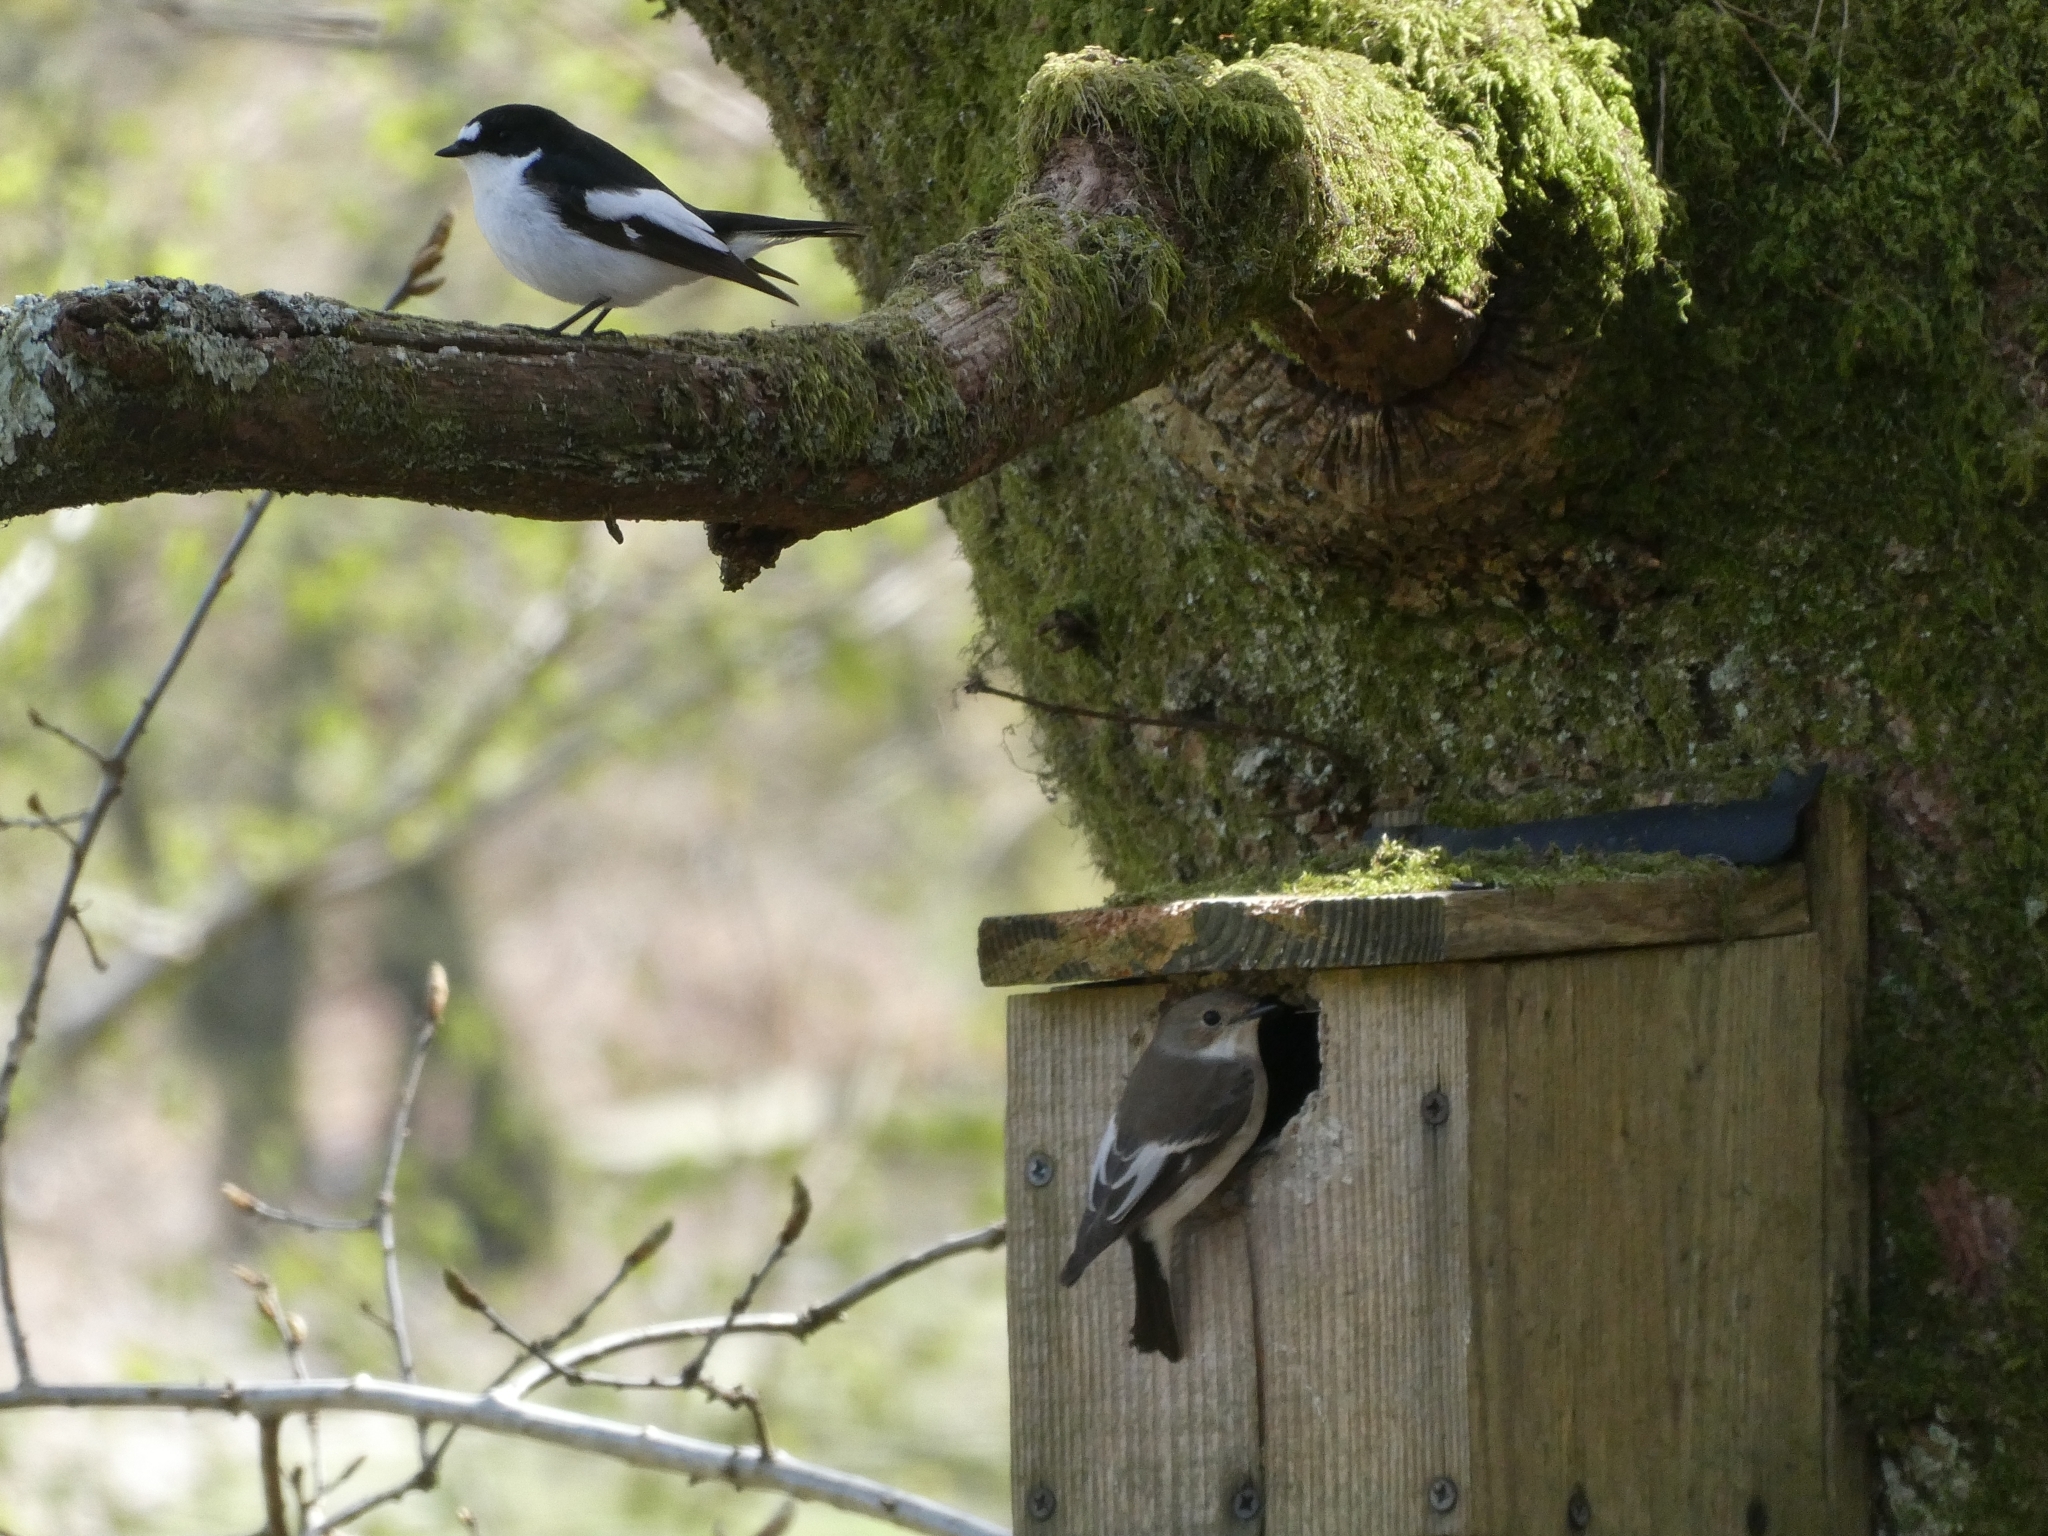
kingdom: Animalia
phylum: Chordata
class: Aves
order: Passeriformes
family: Muscicapidae
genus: Ficedula
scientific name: Ficedula hypoleuca
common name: European pied flycatcher
